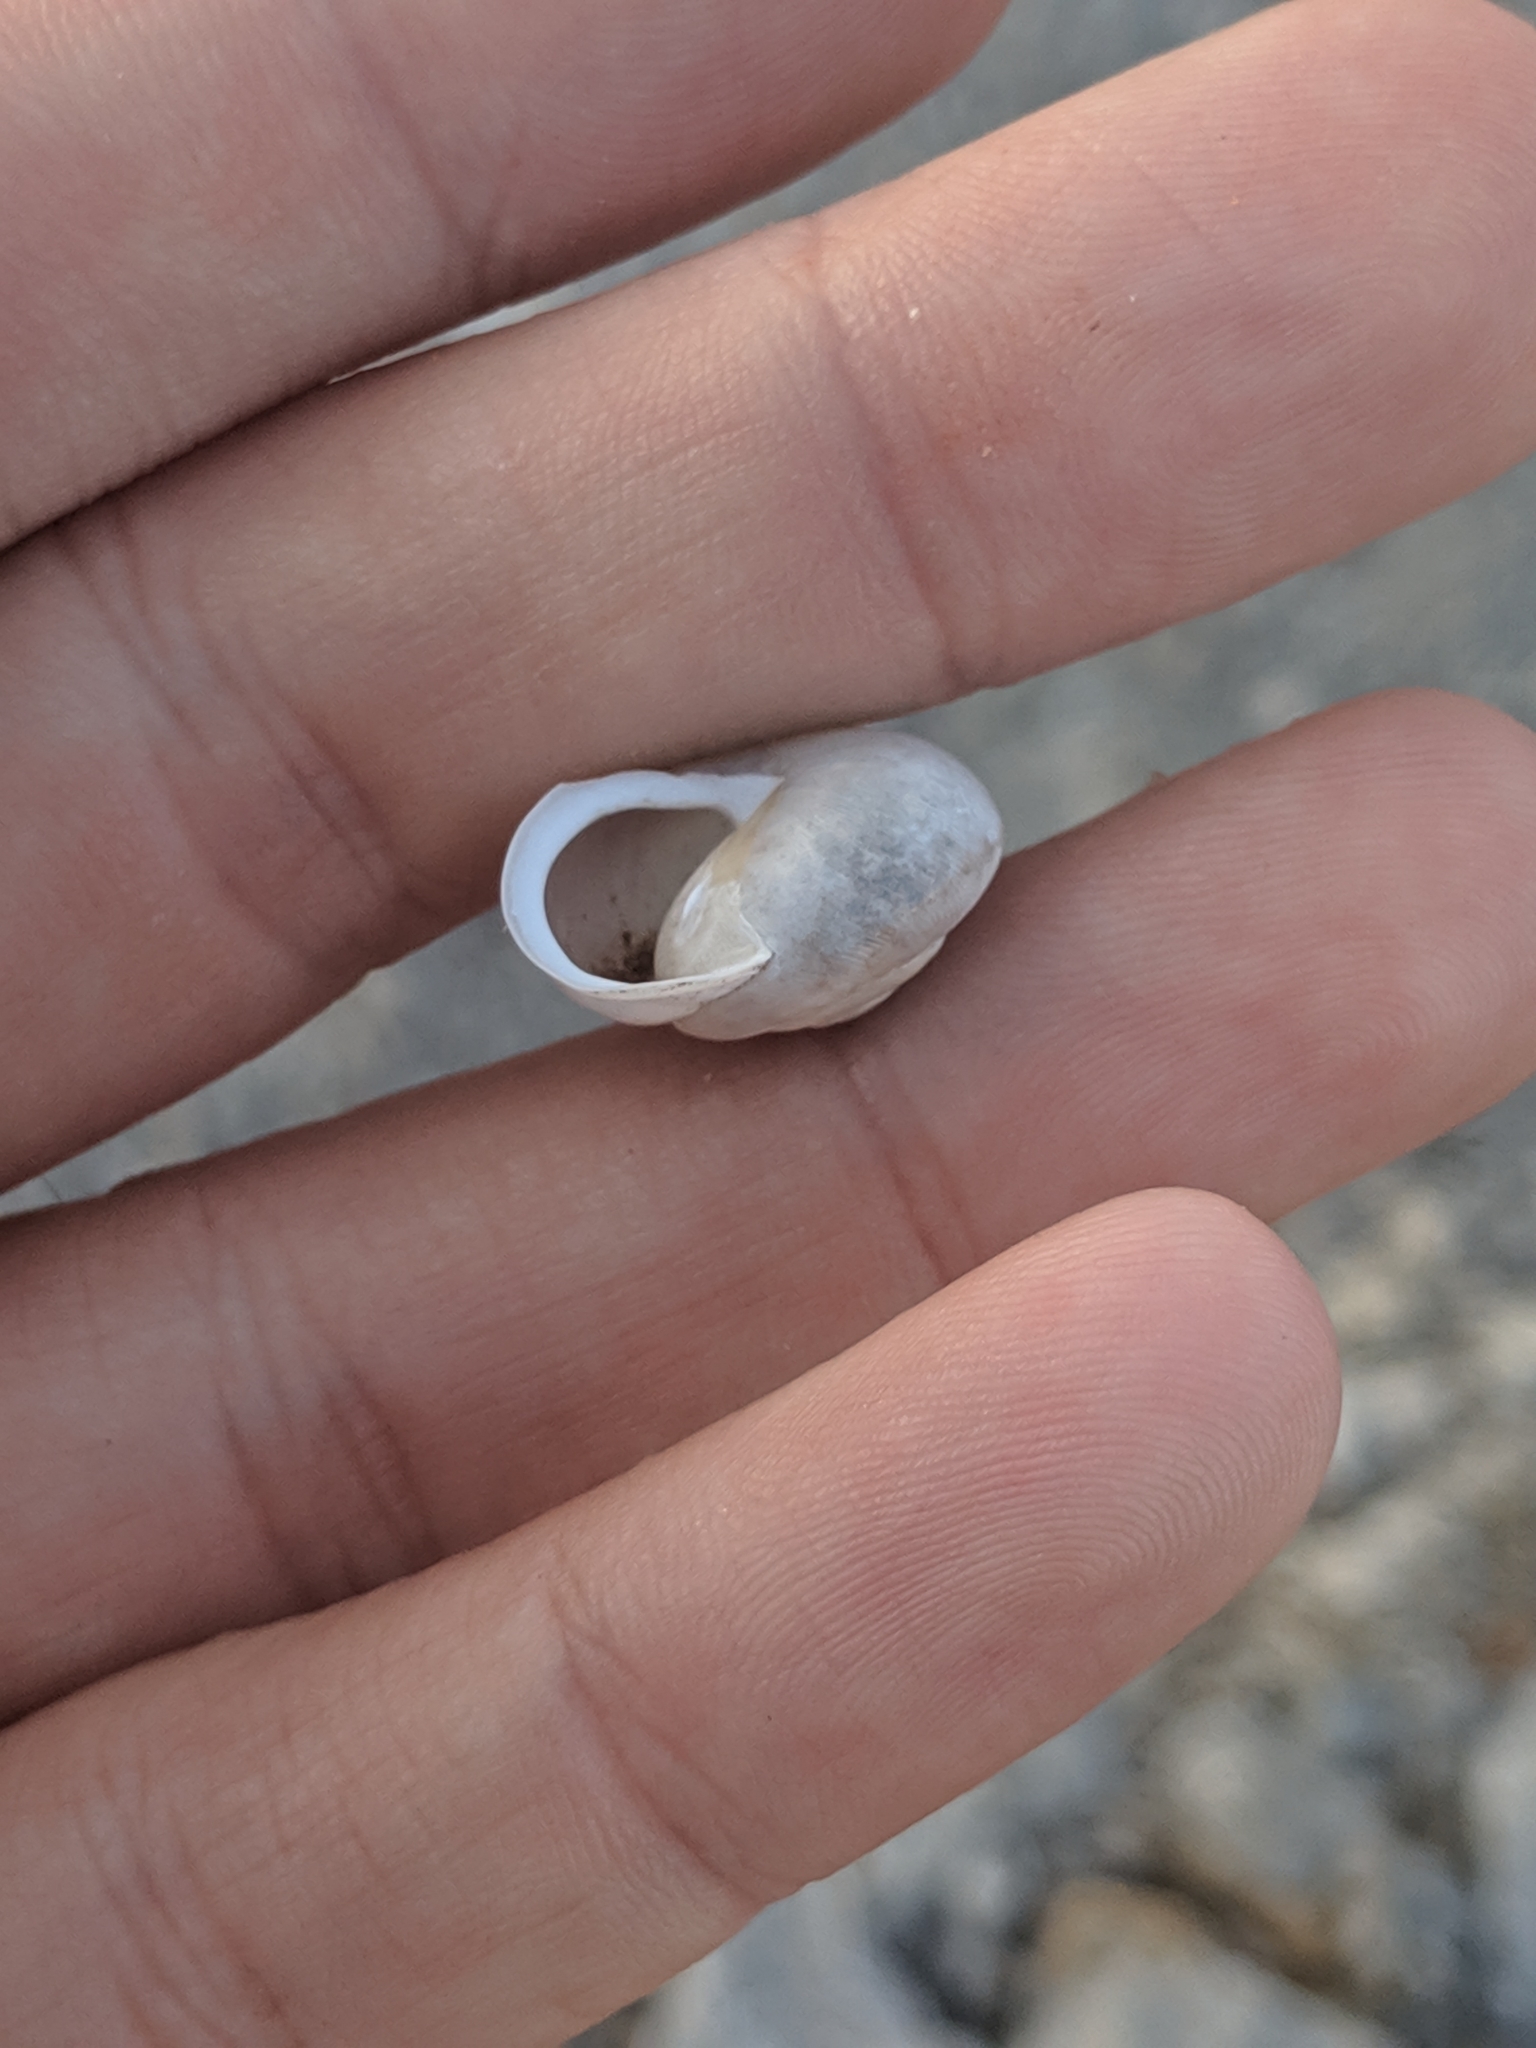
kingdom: Animalia
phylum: Mollusca
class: Gastropoda
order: Stylommatophora
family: Polygyridae
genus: Mesodon
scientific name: Mesodon thyroidus
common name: White-lip globe
